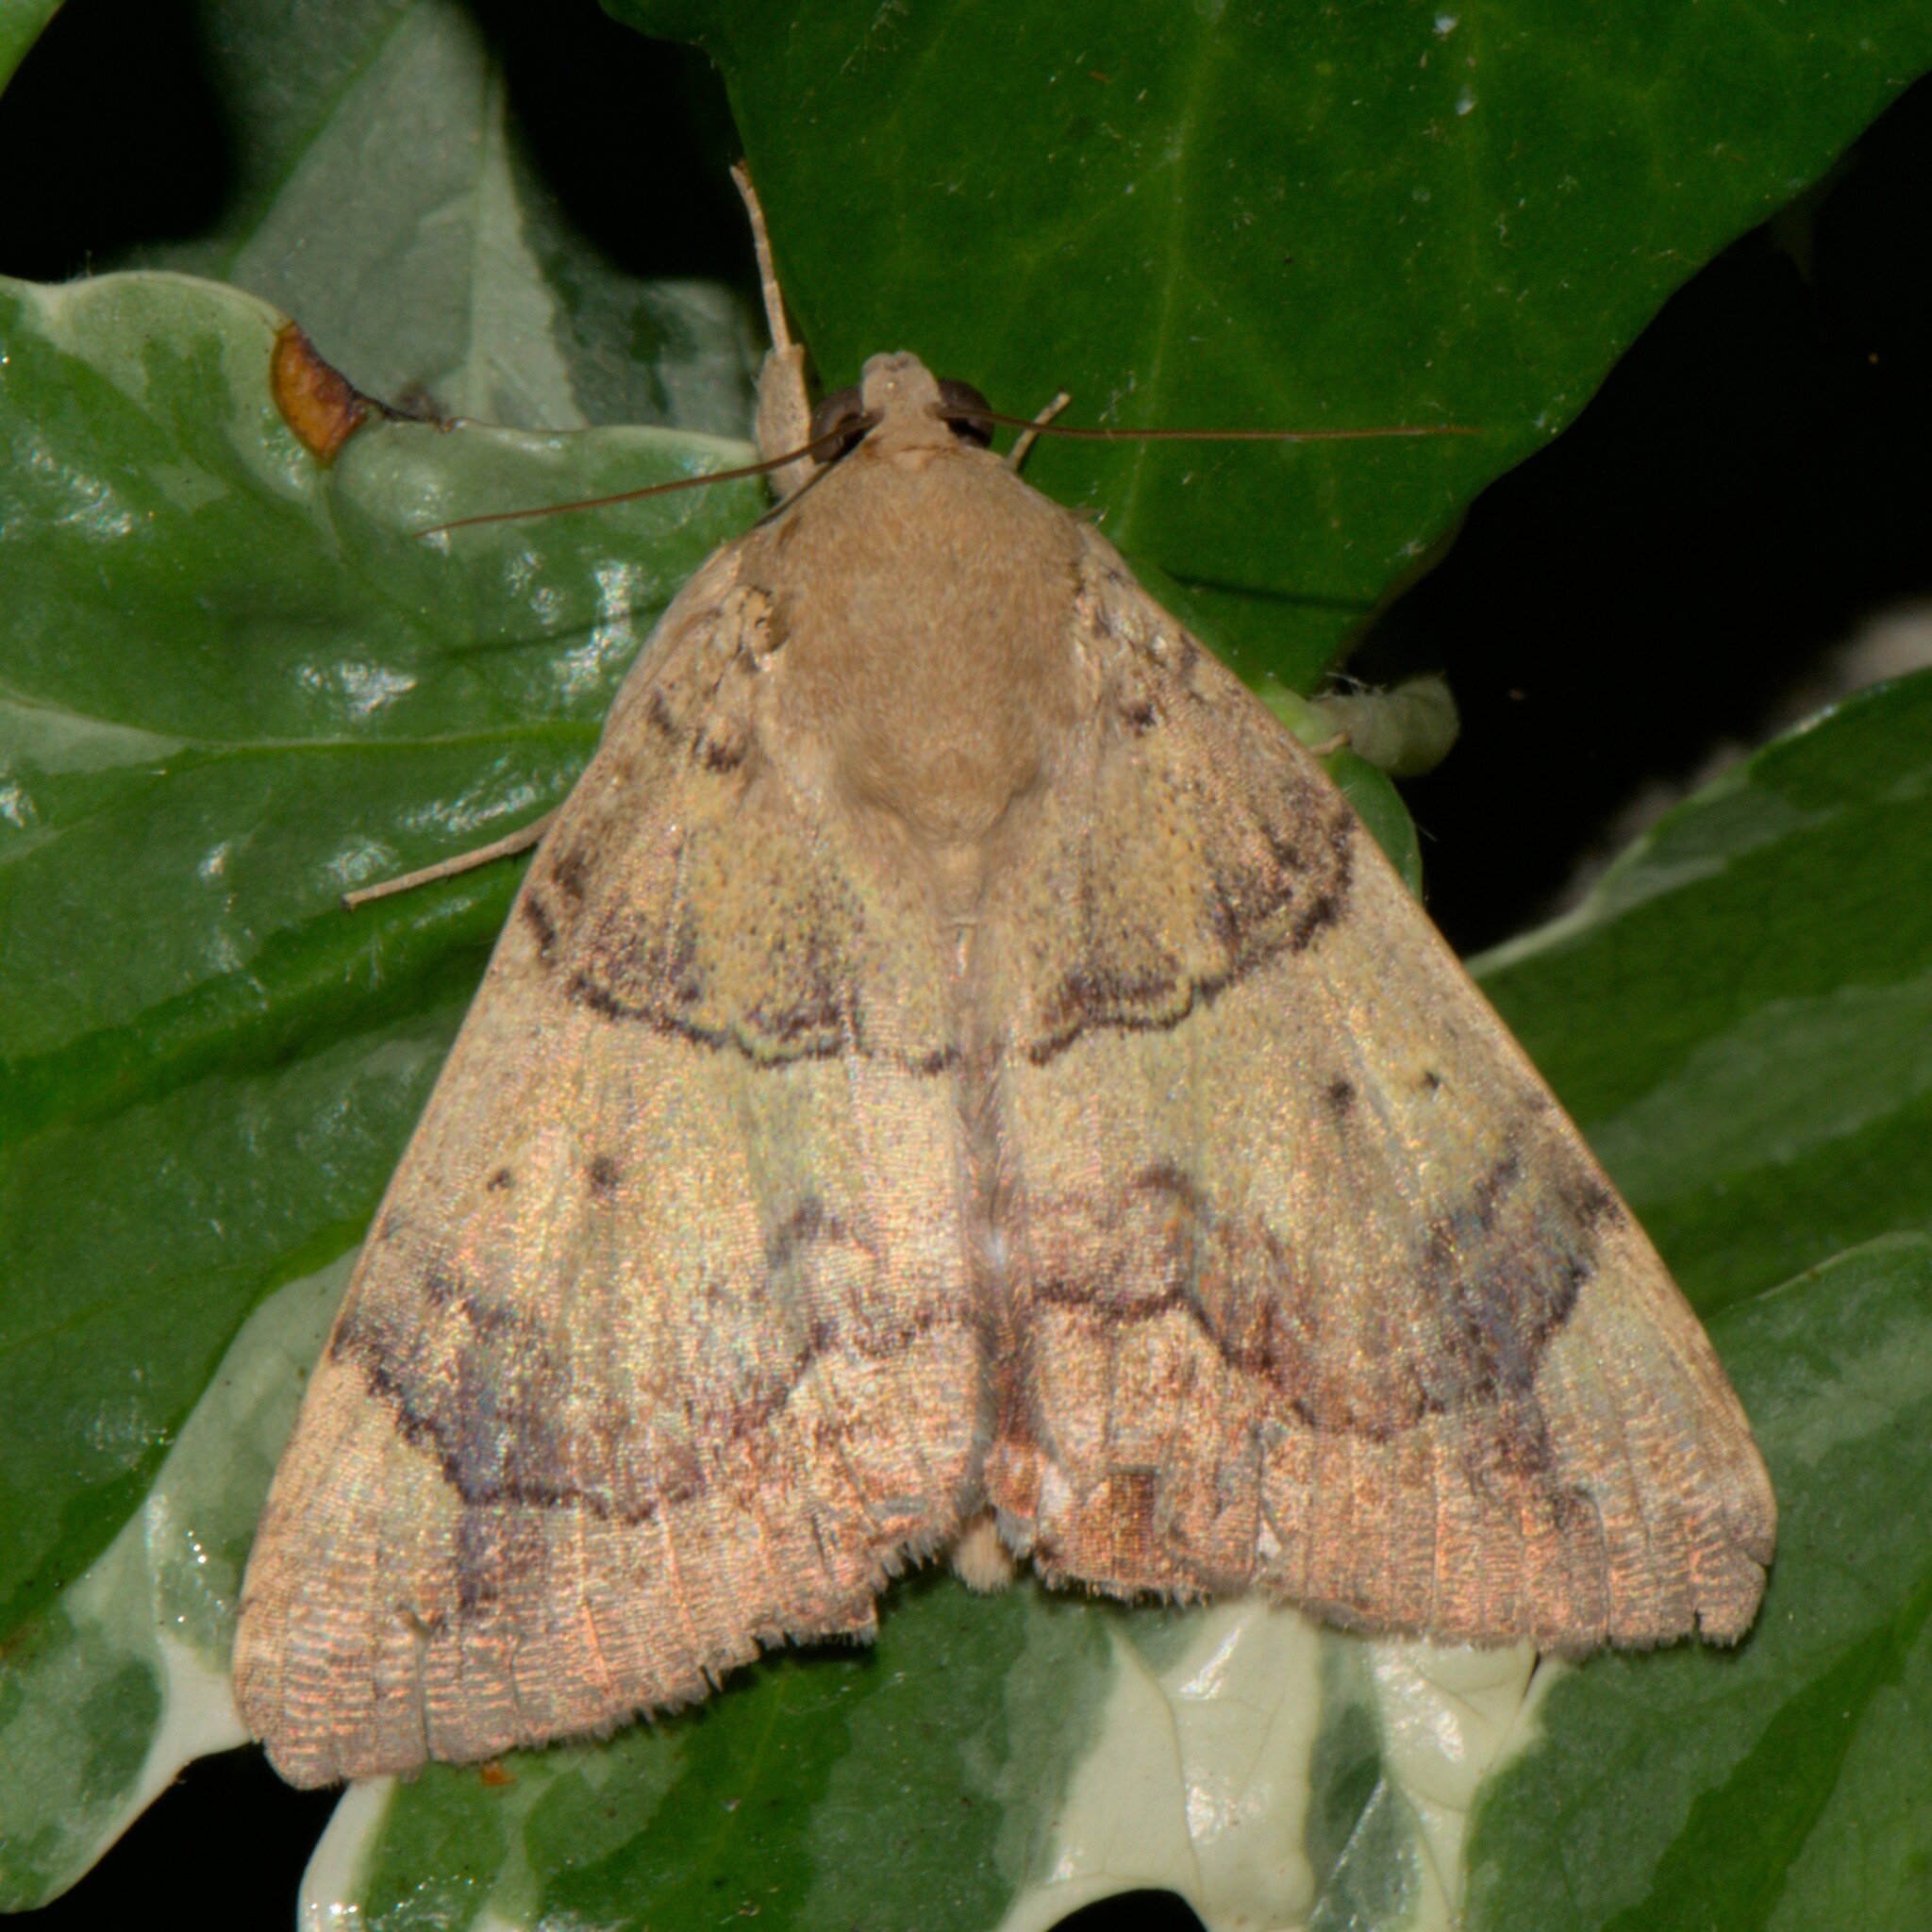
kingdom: Animalia
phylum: Arthropoda
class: Insecta
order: Lepidoptera
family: Erebidae
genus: Achaea
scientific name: Achaea janata
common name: Croton caterpillar
